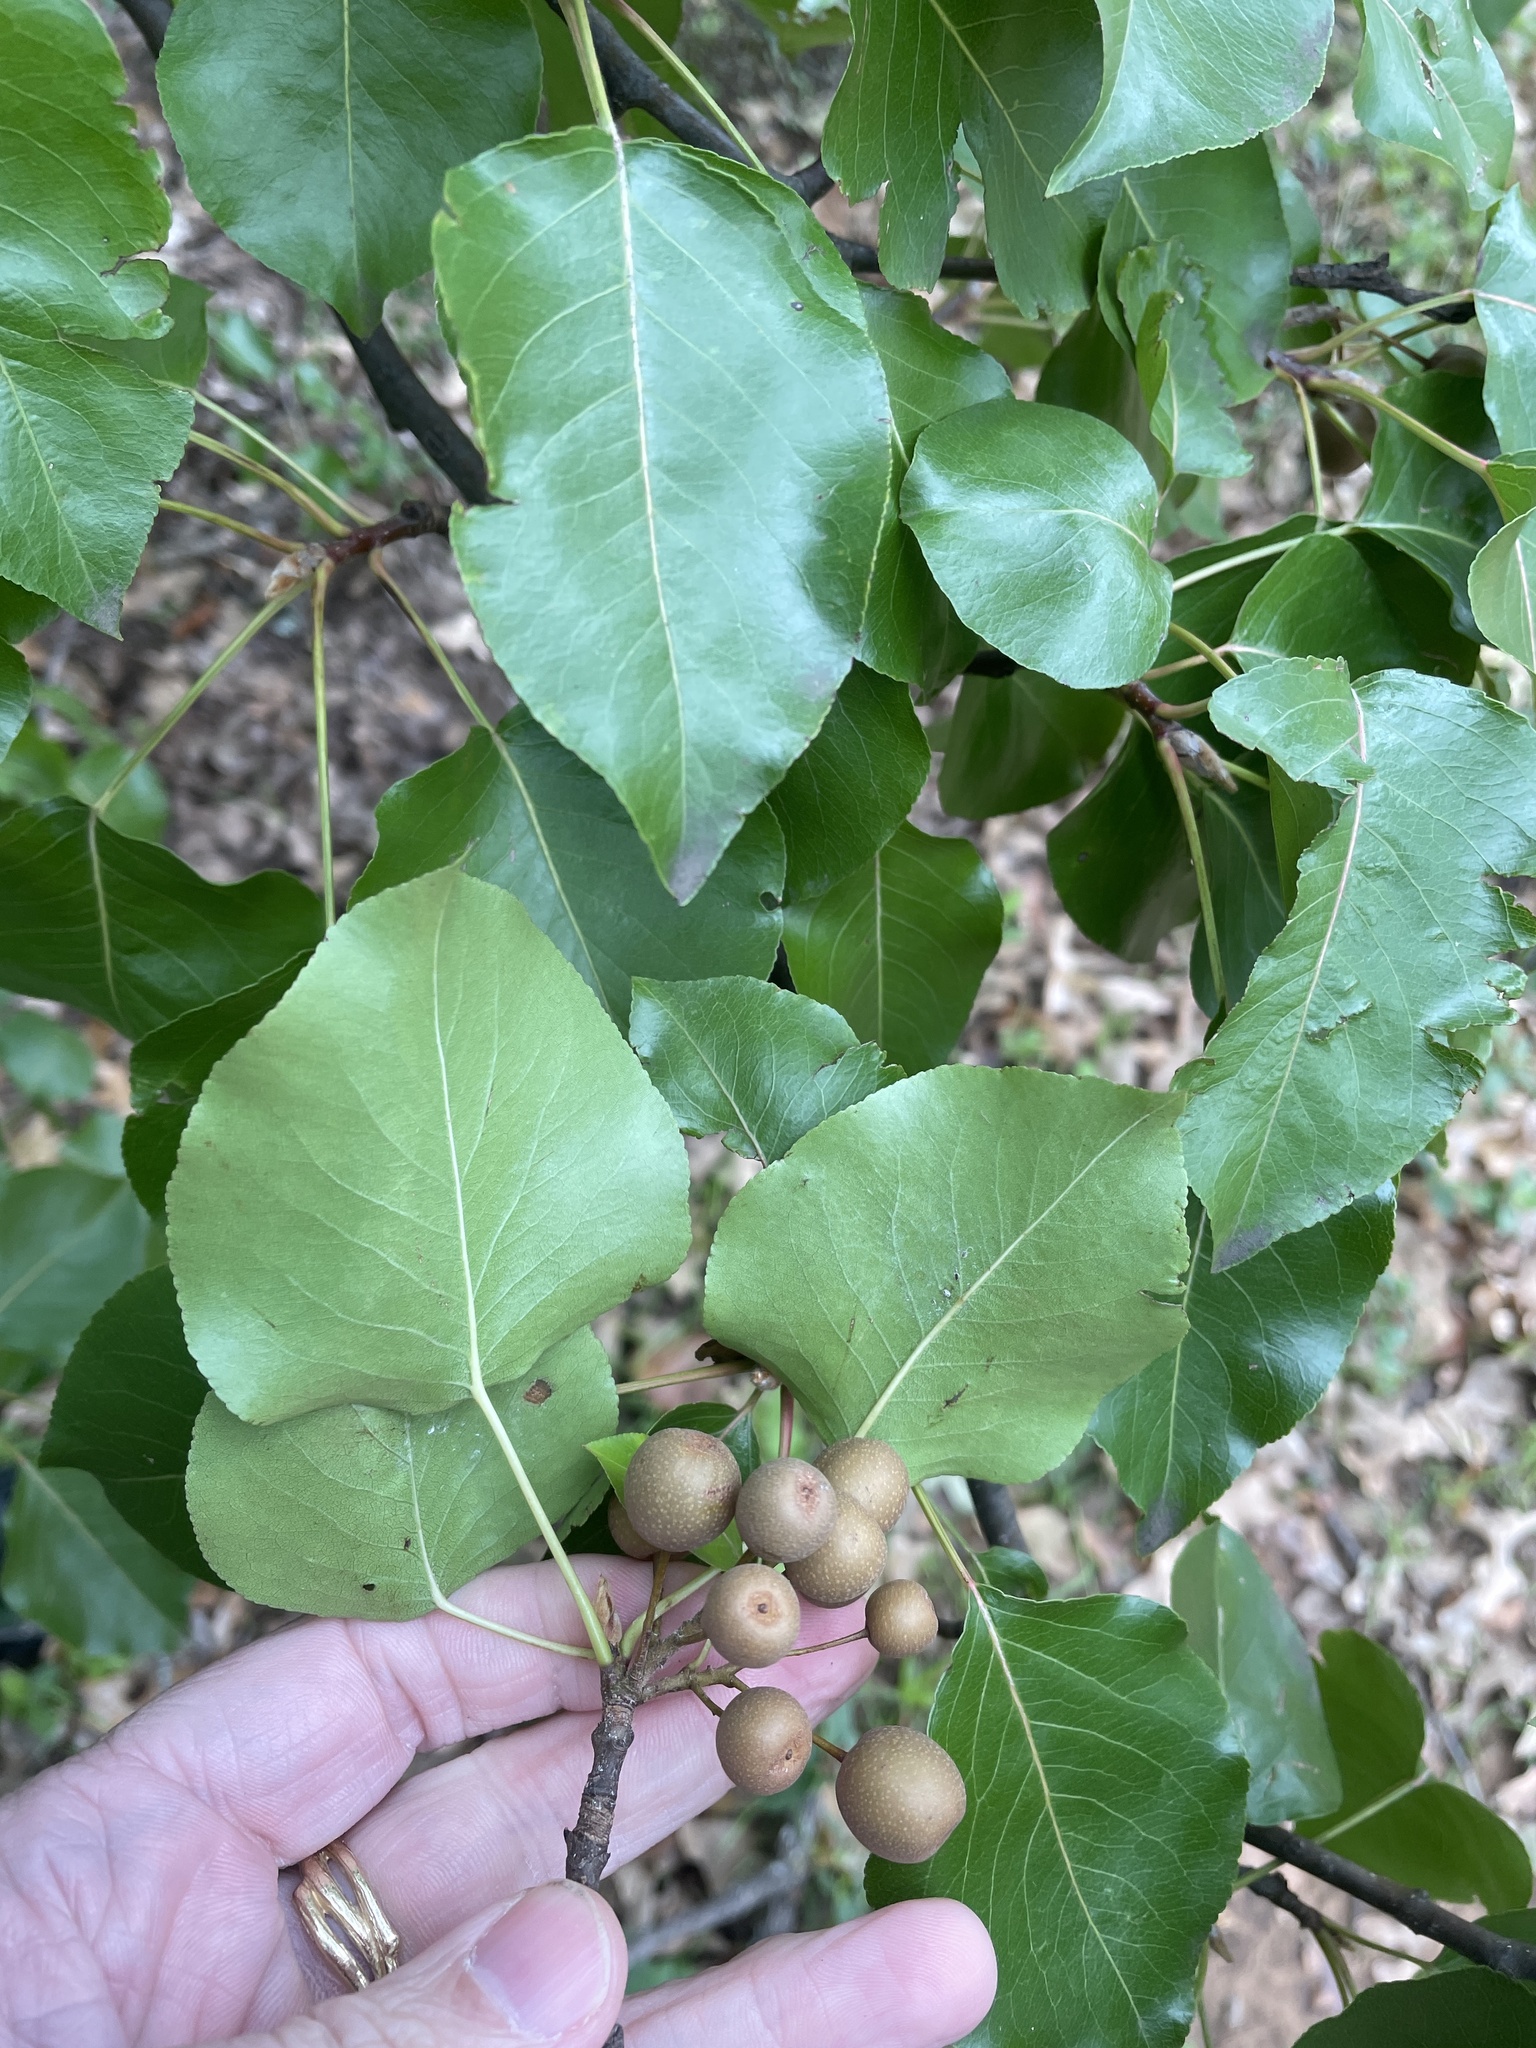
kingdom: Plantae
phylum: Tracheophyta
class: Magnoliopsida
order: Rosales
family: Rosaceae
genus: Pyrus
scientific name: Pyrus calleryana
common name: Callery pear
